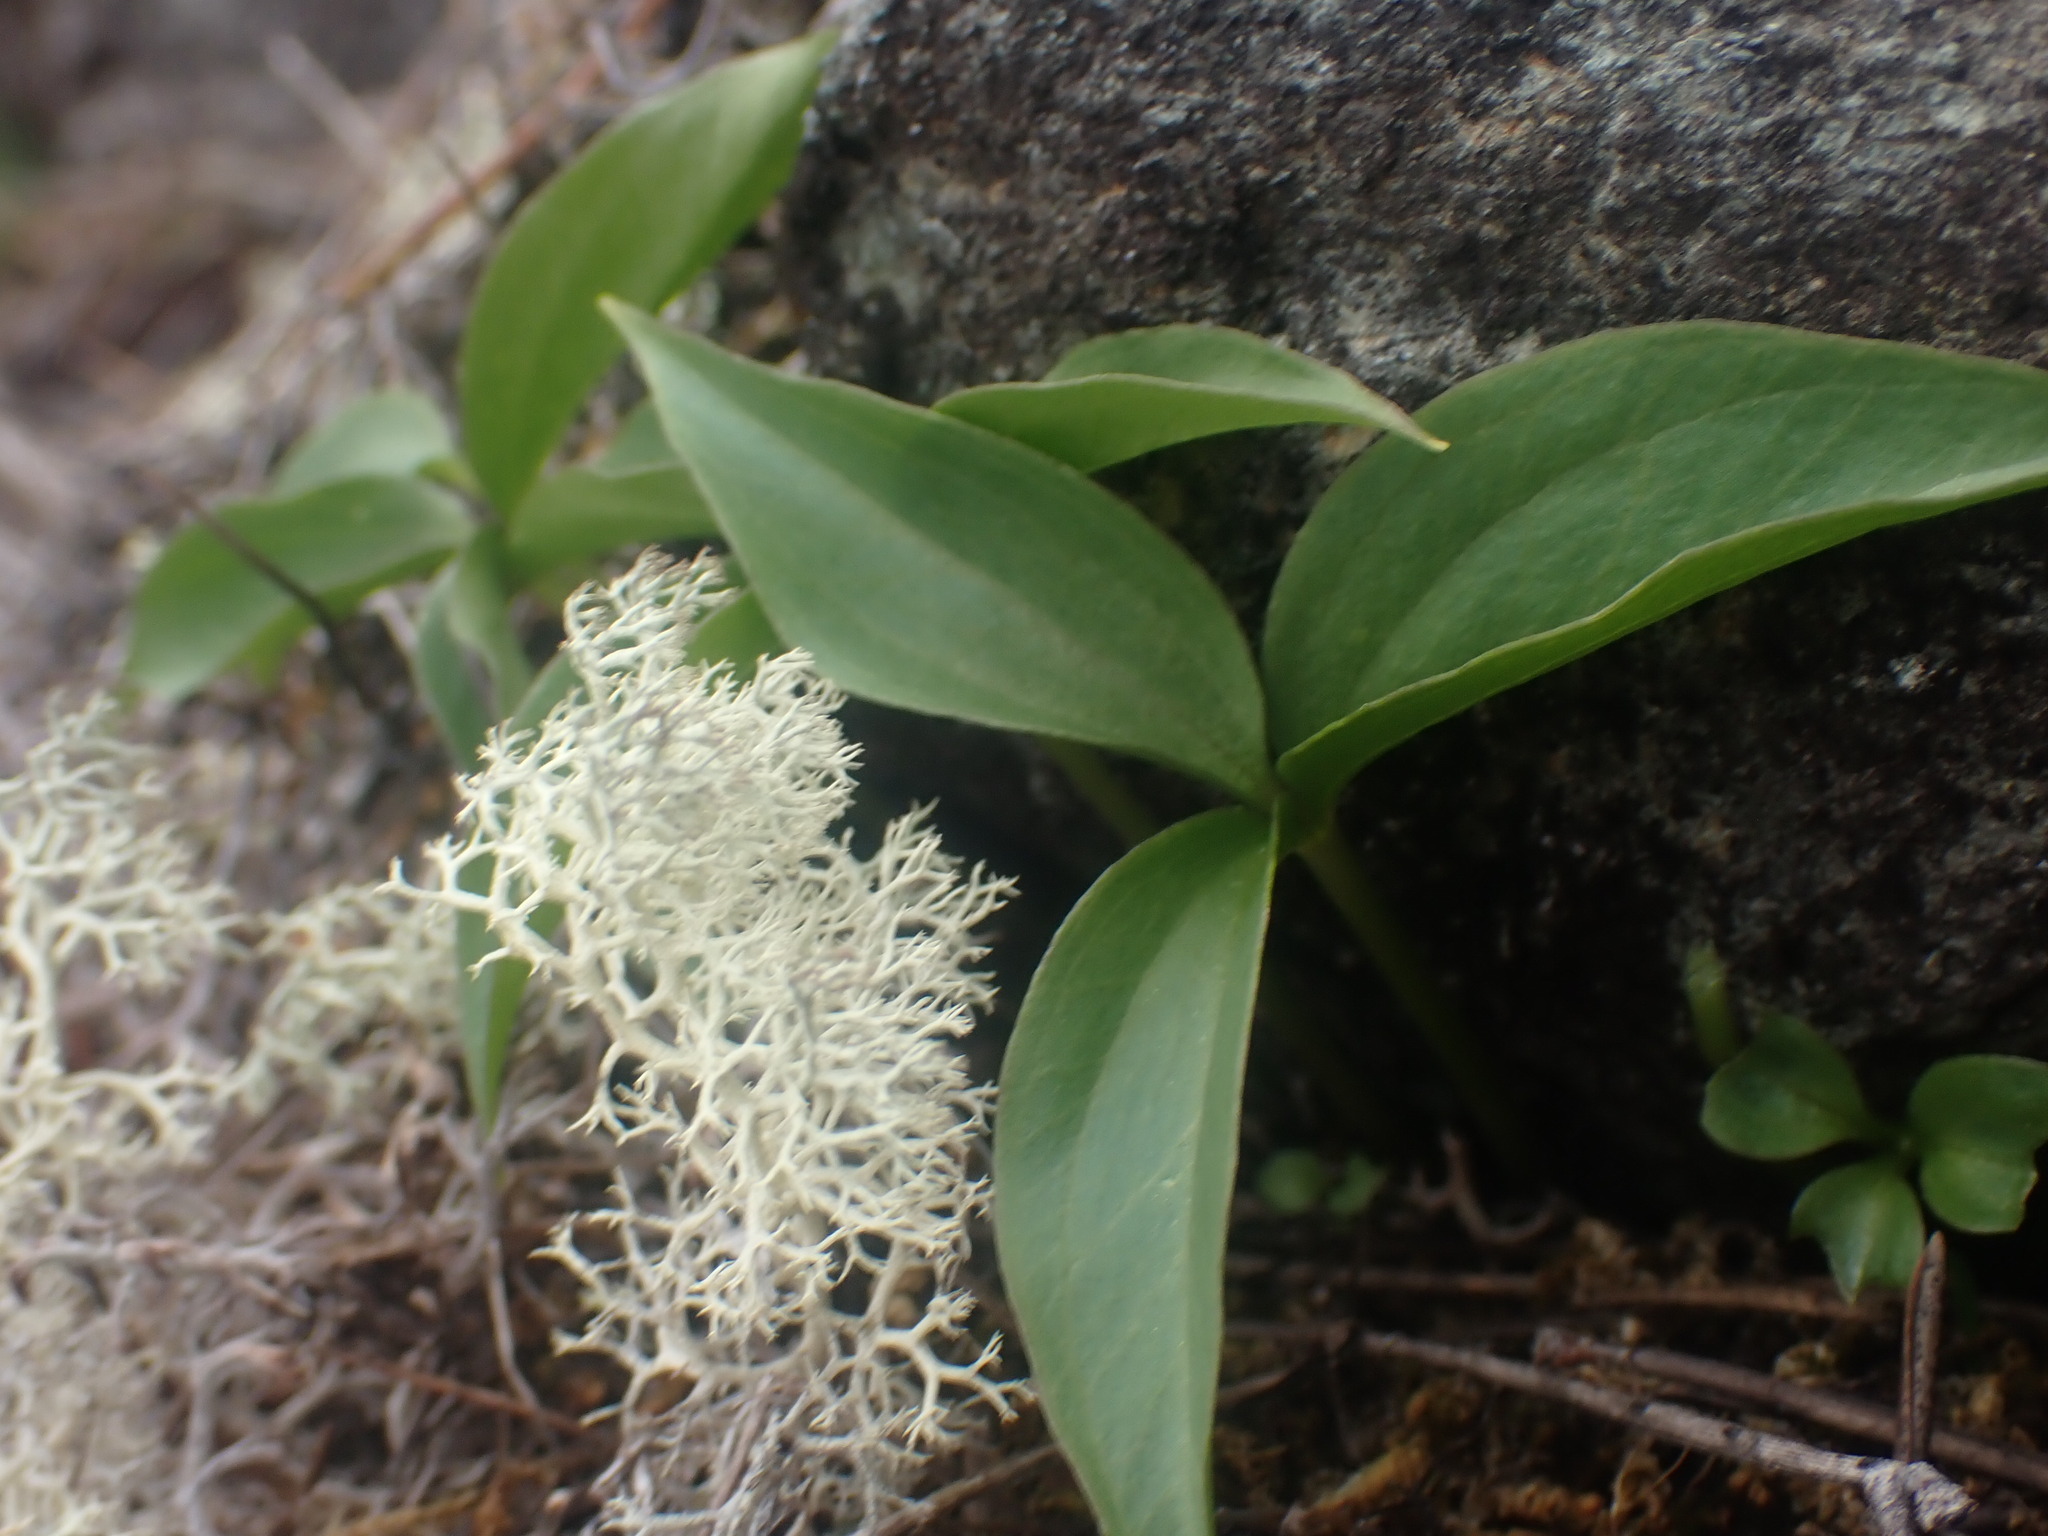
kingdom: Plantae
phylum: Tracheophyta
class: Liliopsida
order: Liliales
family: Melanthiaceae
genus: Trillium
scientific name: Trillium hibbersonii
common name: Hibberson's trillium
